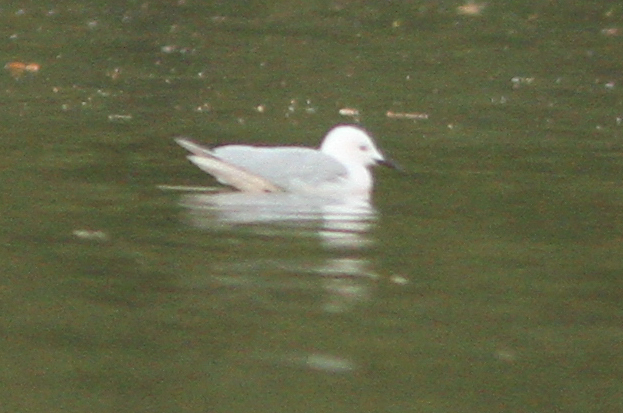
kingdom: Animalia
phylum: Chordata
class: Aves
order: Charadriiformes
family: Laridae
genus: Chroicocephalus
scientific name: Chroicocephalus genei
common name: Slender-billed gull
